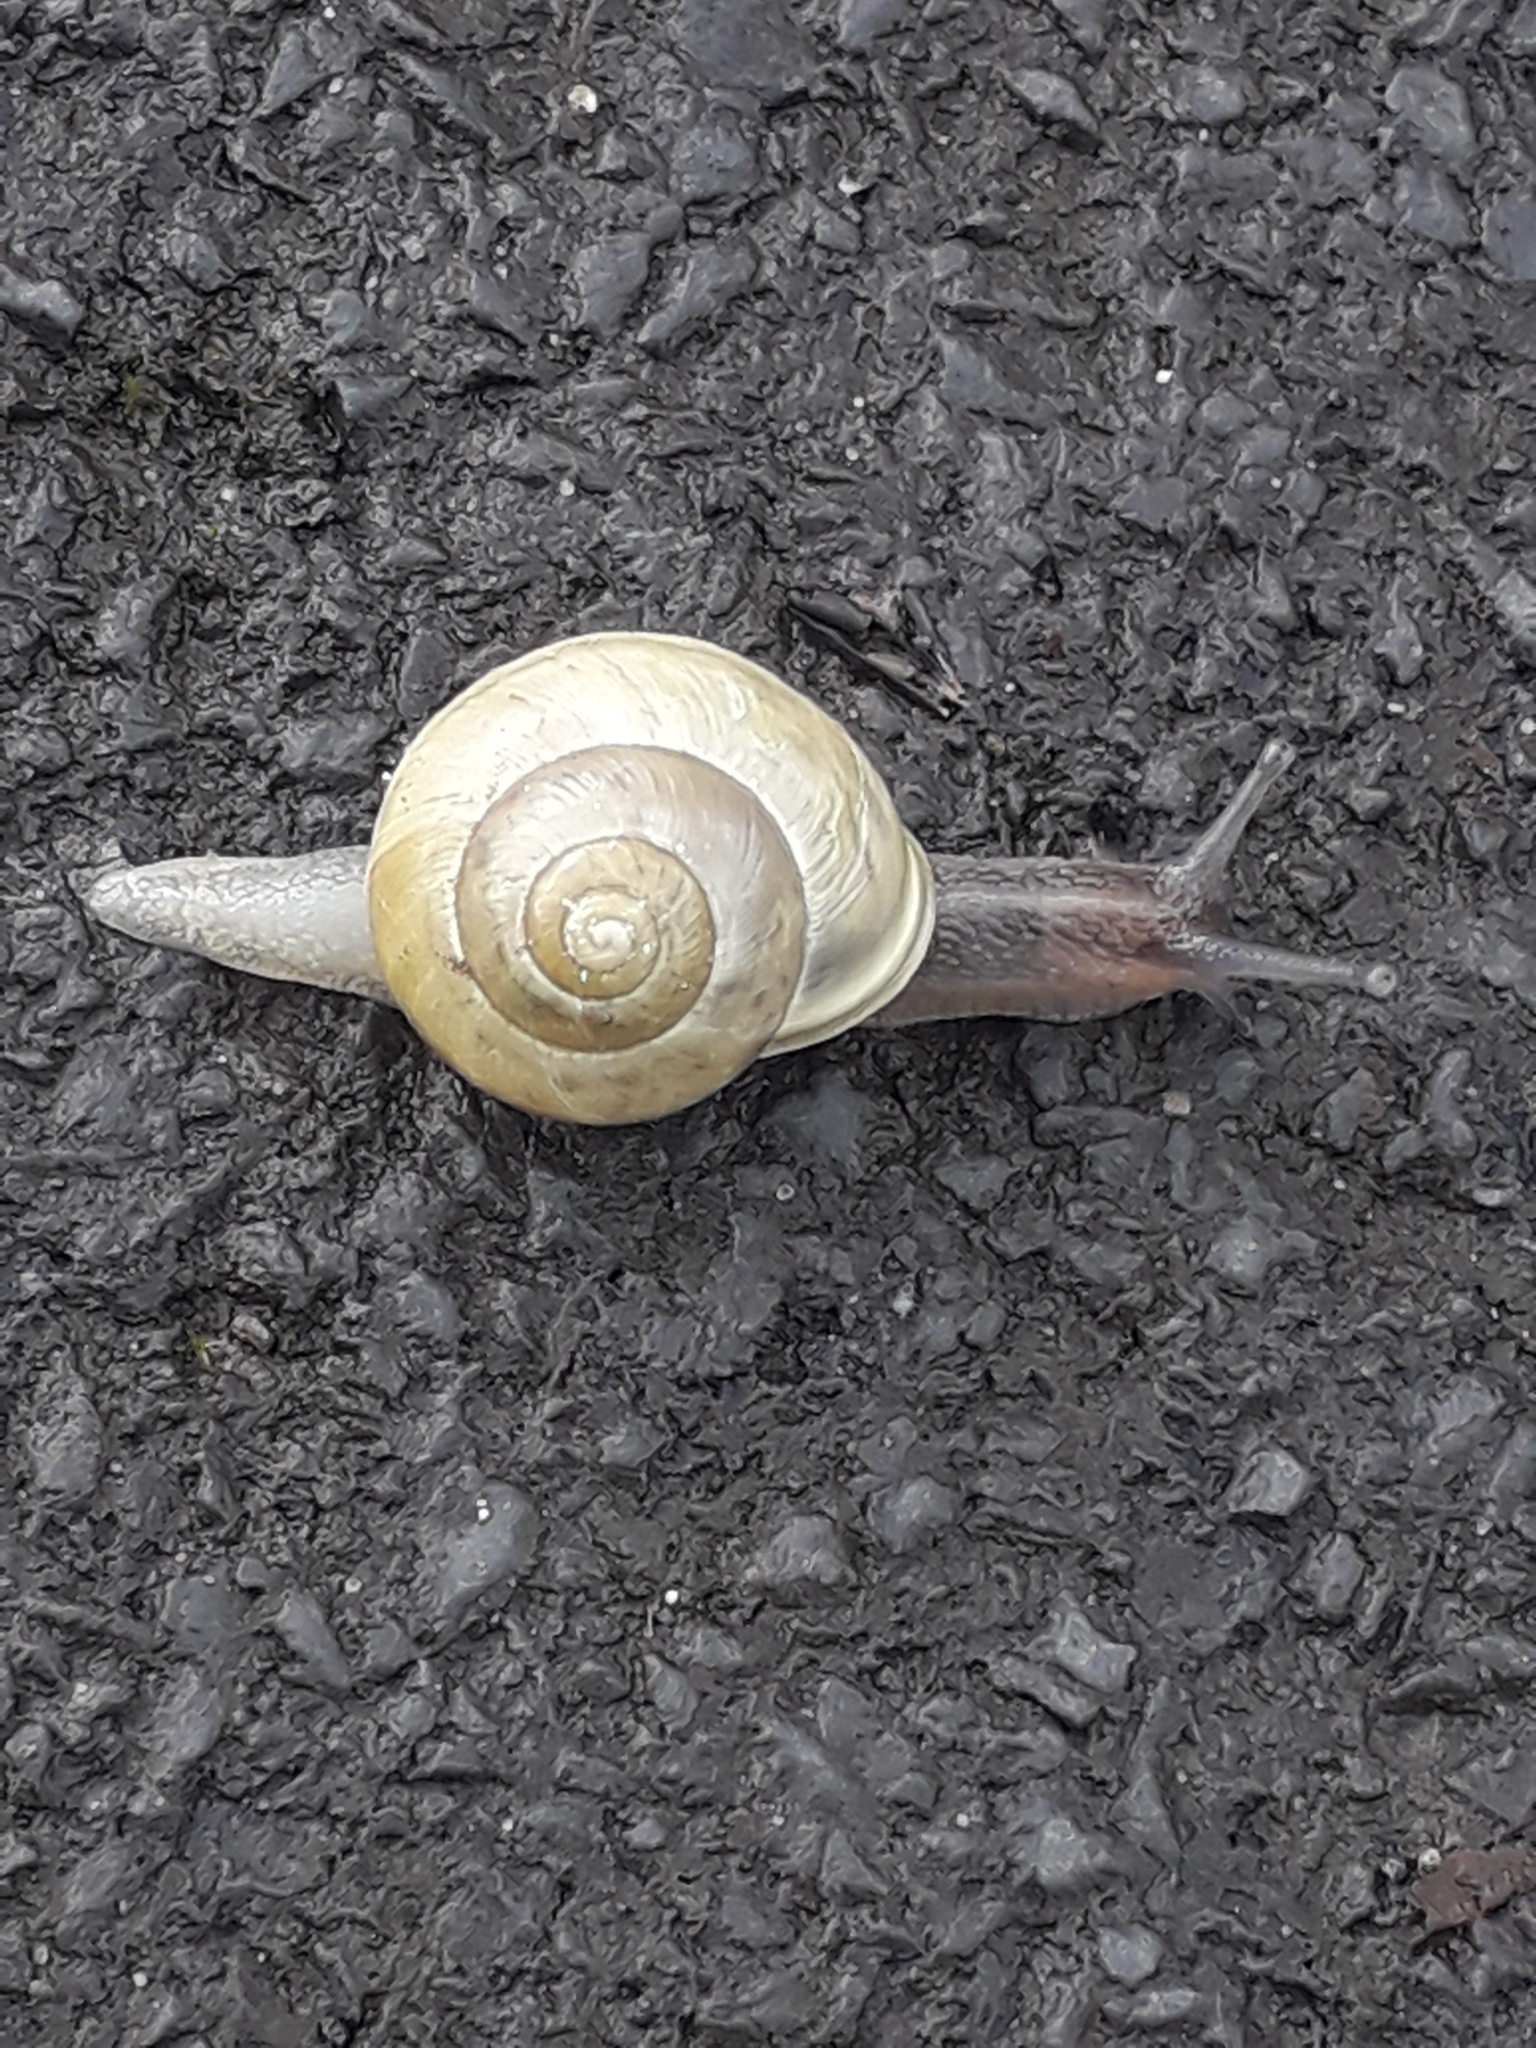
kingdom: Animalia
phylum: Mollusca
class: Gastropoda
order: Stylommatophora
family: Helicidae
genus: Cepaea
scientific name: Cepaea hortensis
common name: White-lip gardensnail
